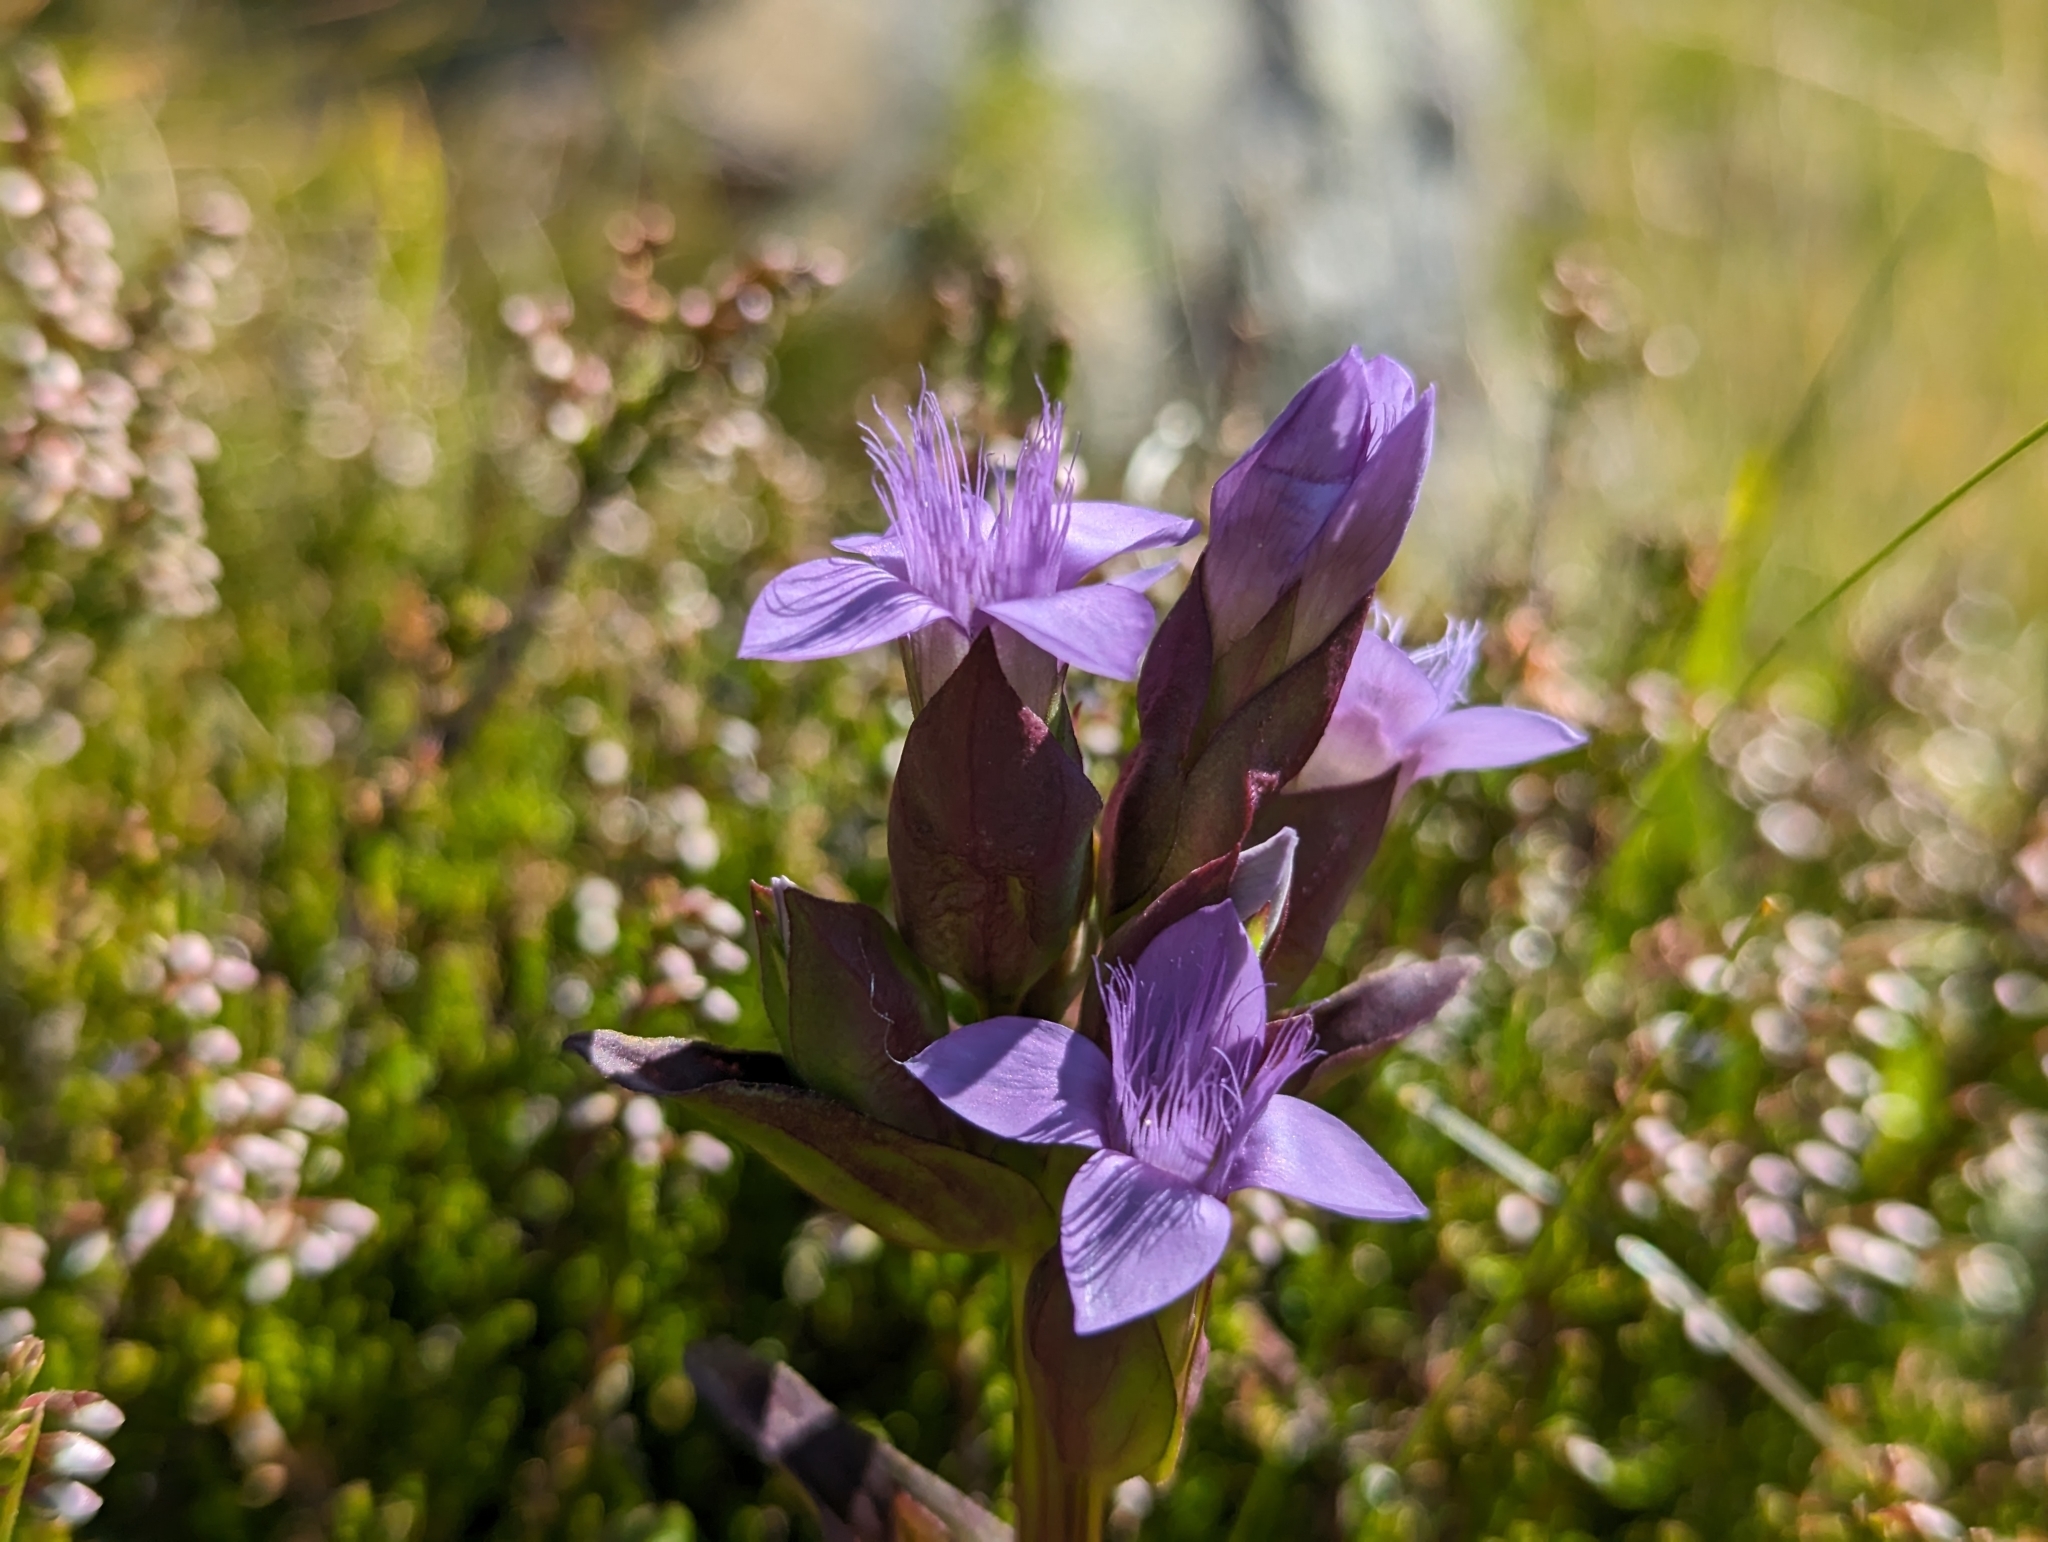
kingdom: Plantae
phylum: Tracheophyta
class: Magnoliopsida
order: Gentianales
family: Gentianaceae
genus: Gentianella
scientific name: Gentianella campestris
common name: Field gentian
